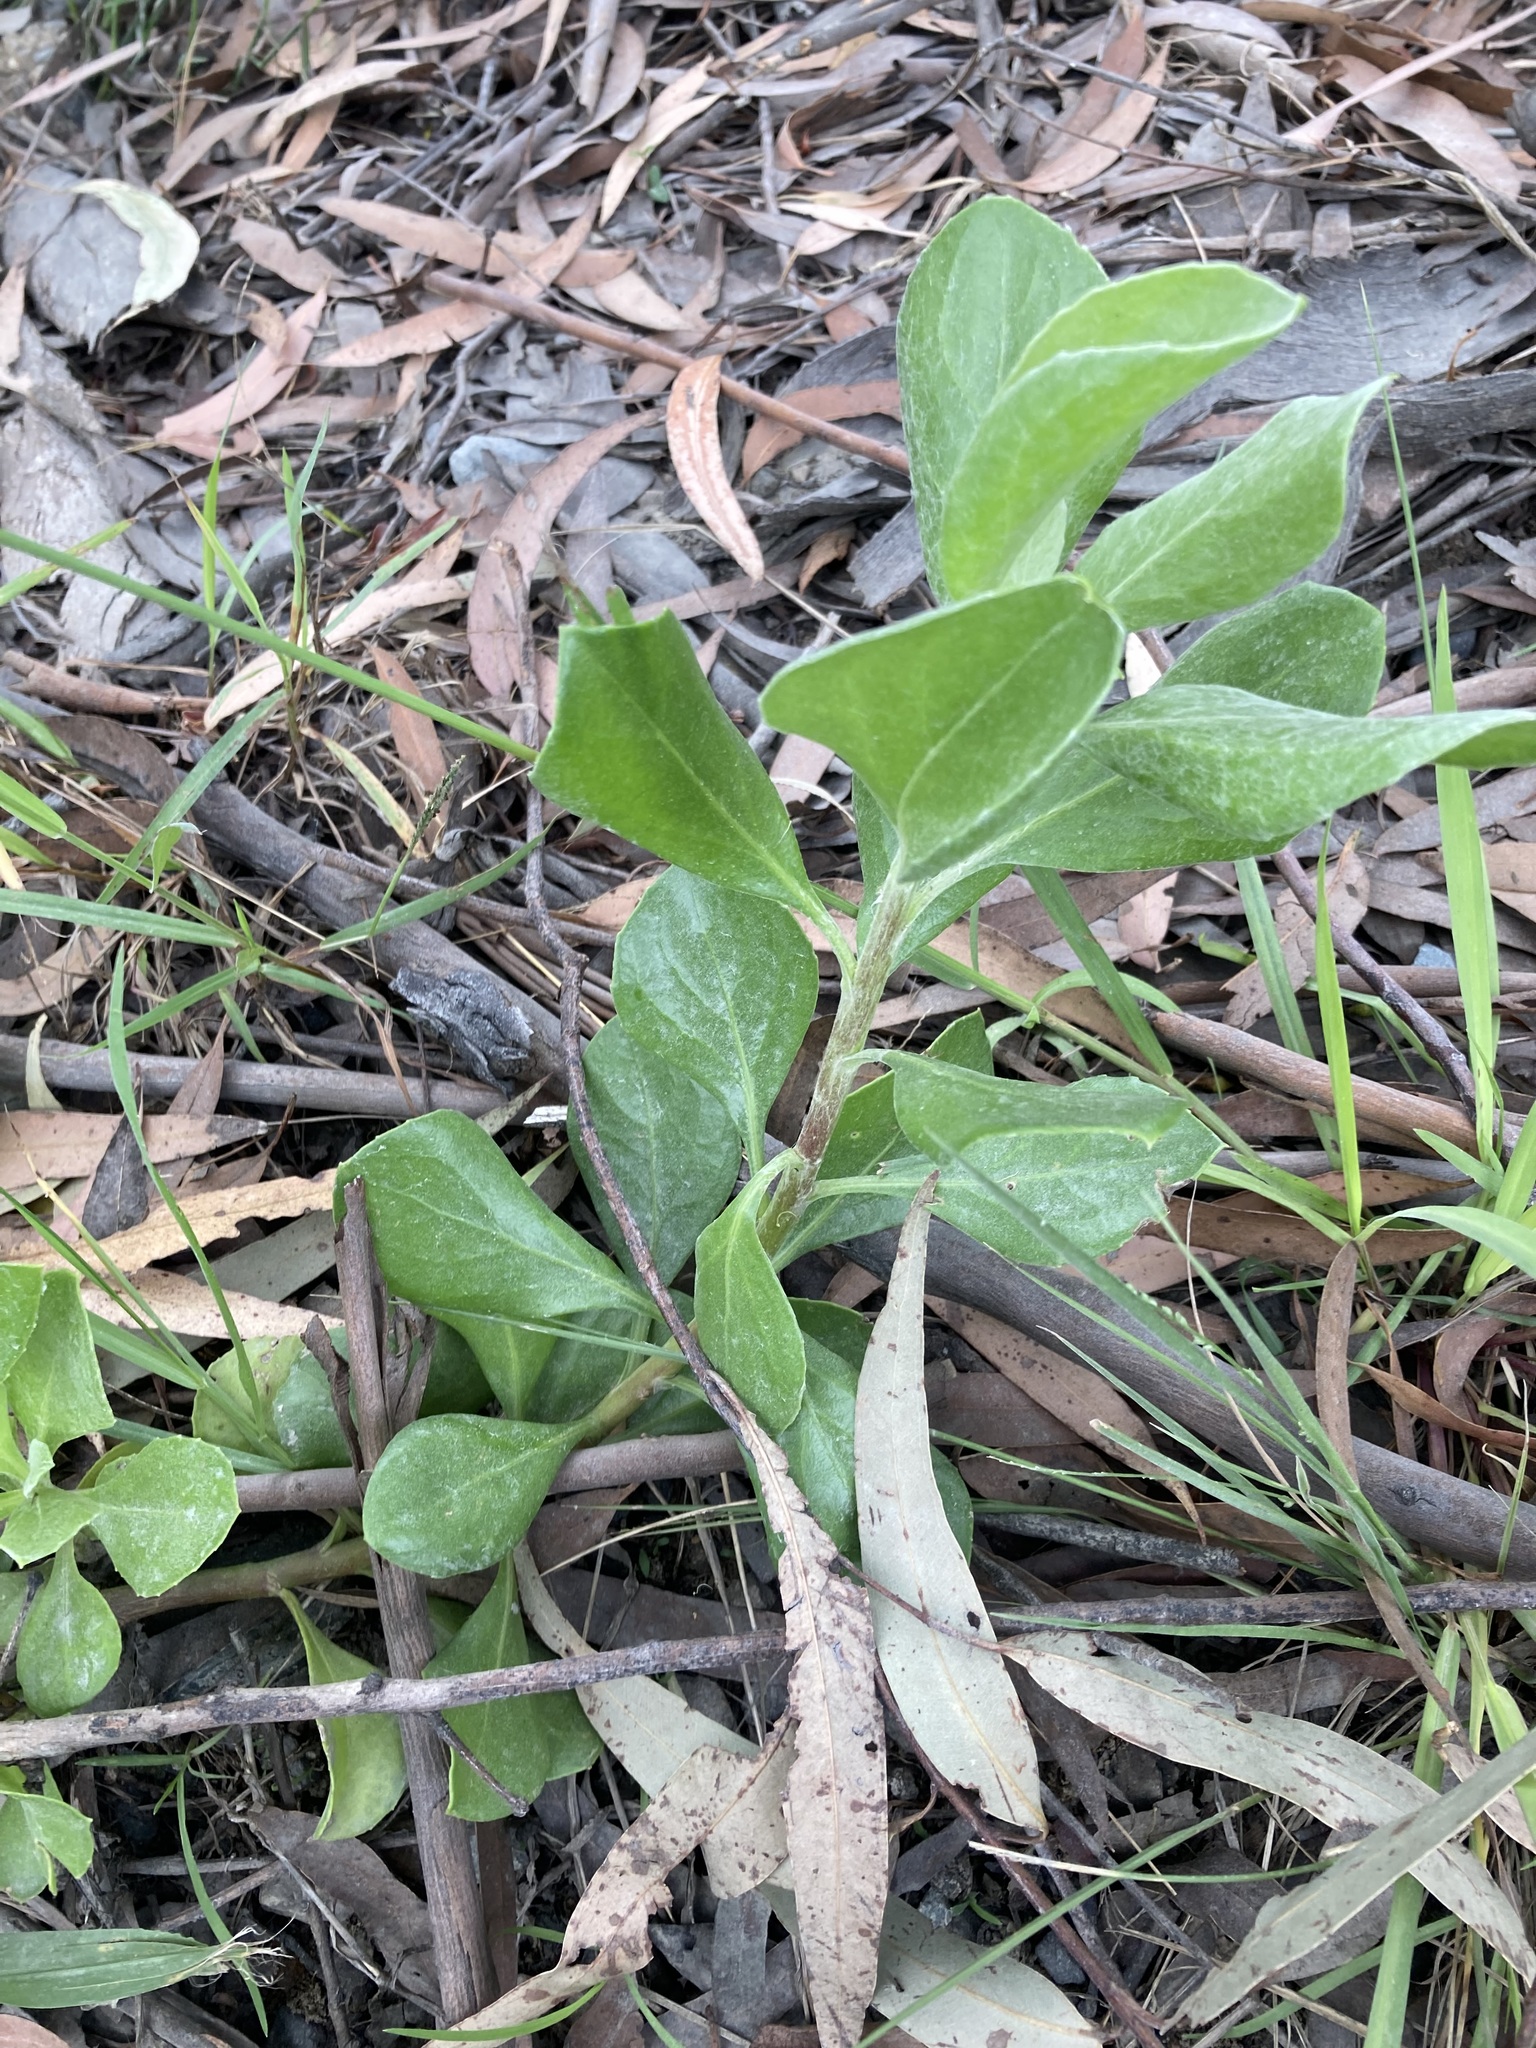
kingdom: Plantae
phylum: Tracheophyta
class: Magnoliopsida
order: Asterales
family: Asteraceae
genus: Osteospermum
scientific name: Osteospermum moniliferum
